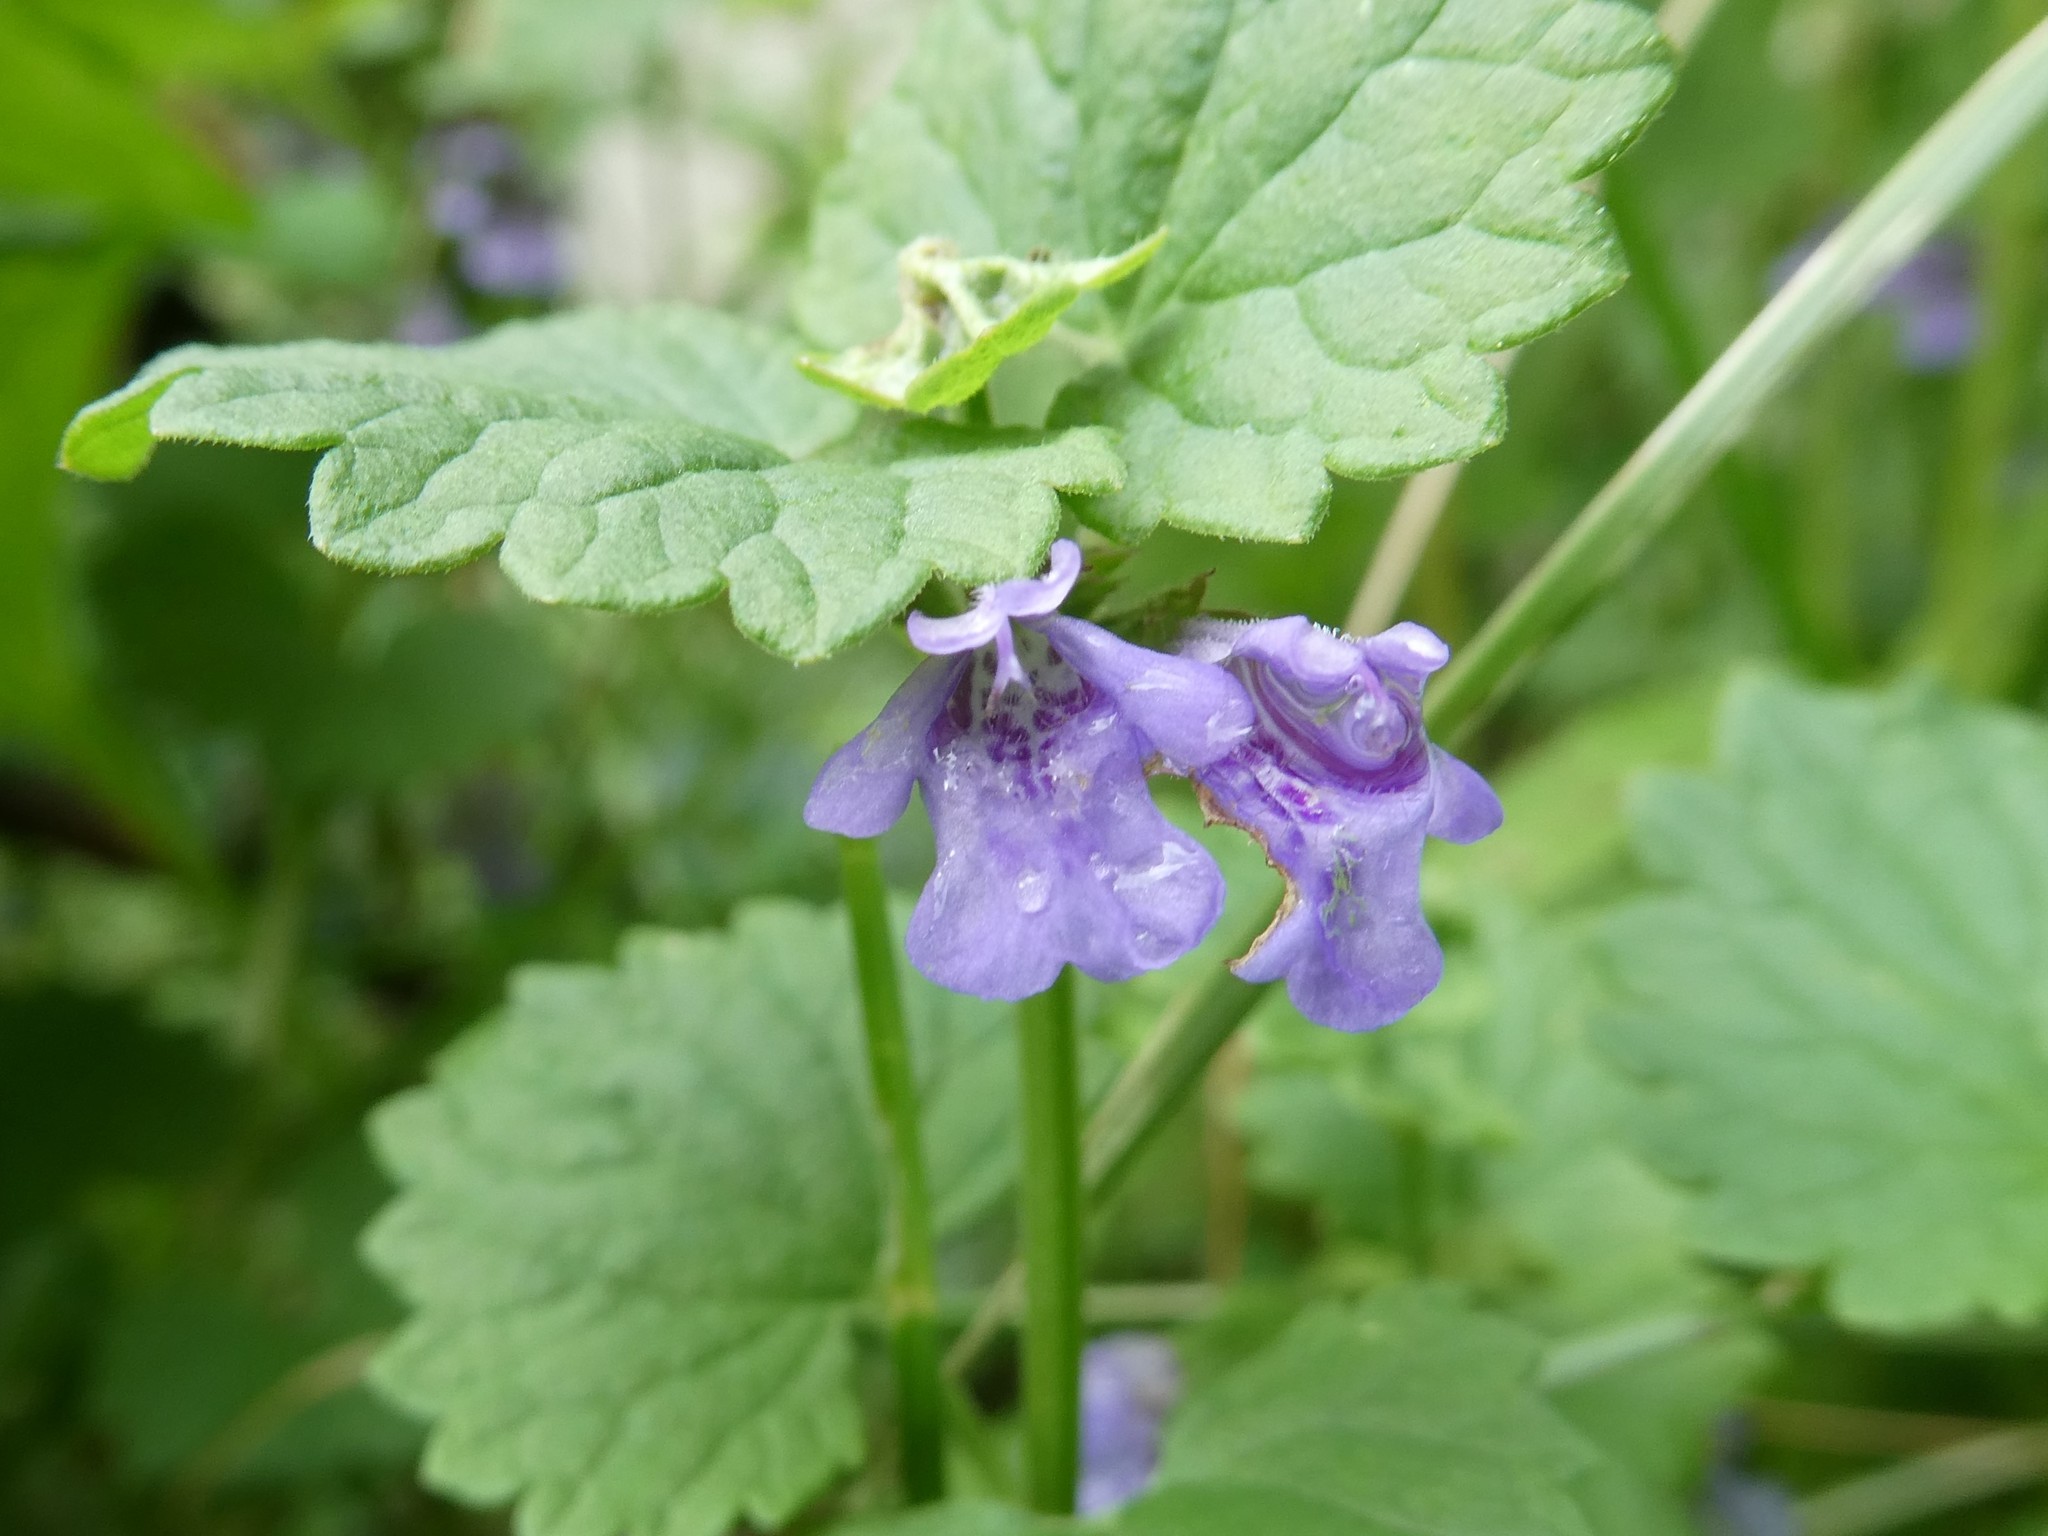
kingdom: Plantae
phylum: Tracheophyta
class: Magnoliopsida
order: Lamiales
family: Lamiaceae
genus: Glechoma
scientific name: Glechoma hederacea
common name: Ground ivy
